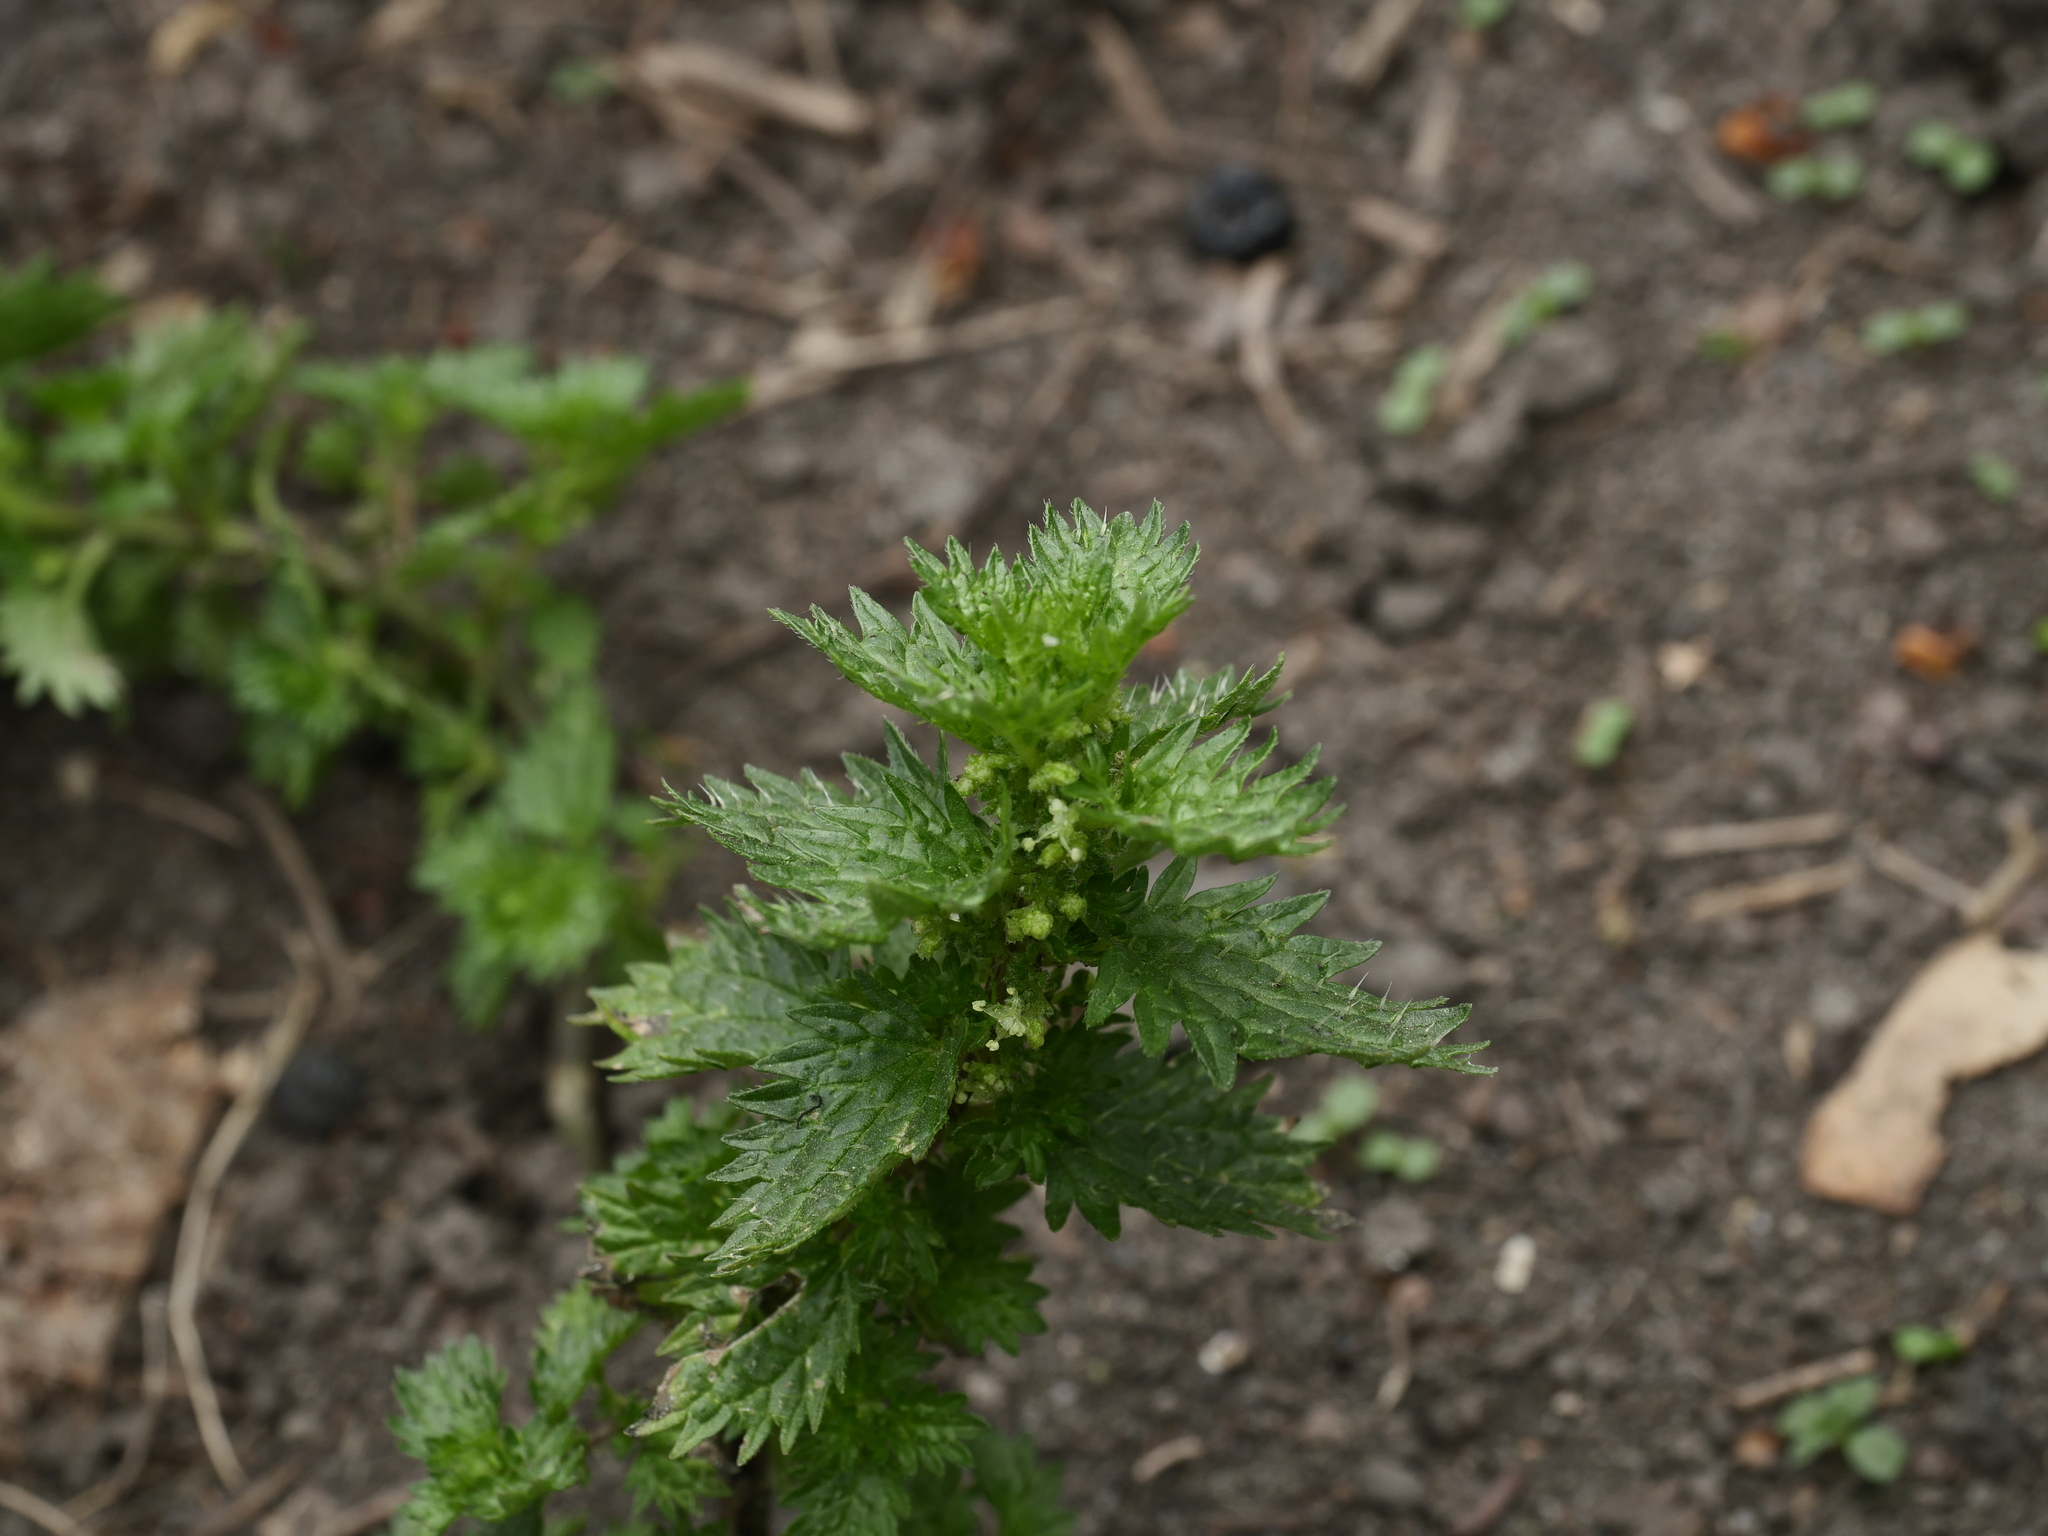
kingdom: Plantae
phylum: Tracheophyta
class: Magnoliopsida
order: Rosales
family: Urticaceae
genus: Urtica
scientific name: Urtica urens
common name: Dwarf nettle
